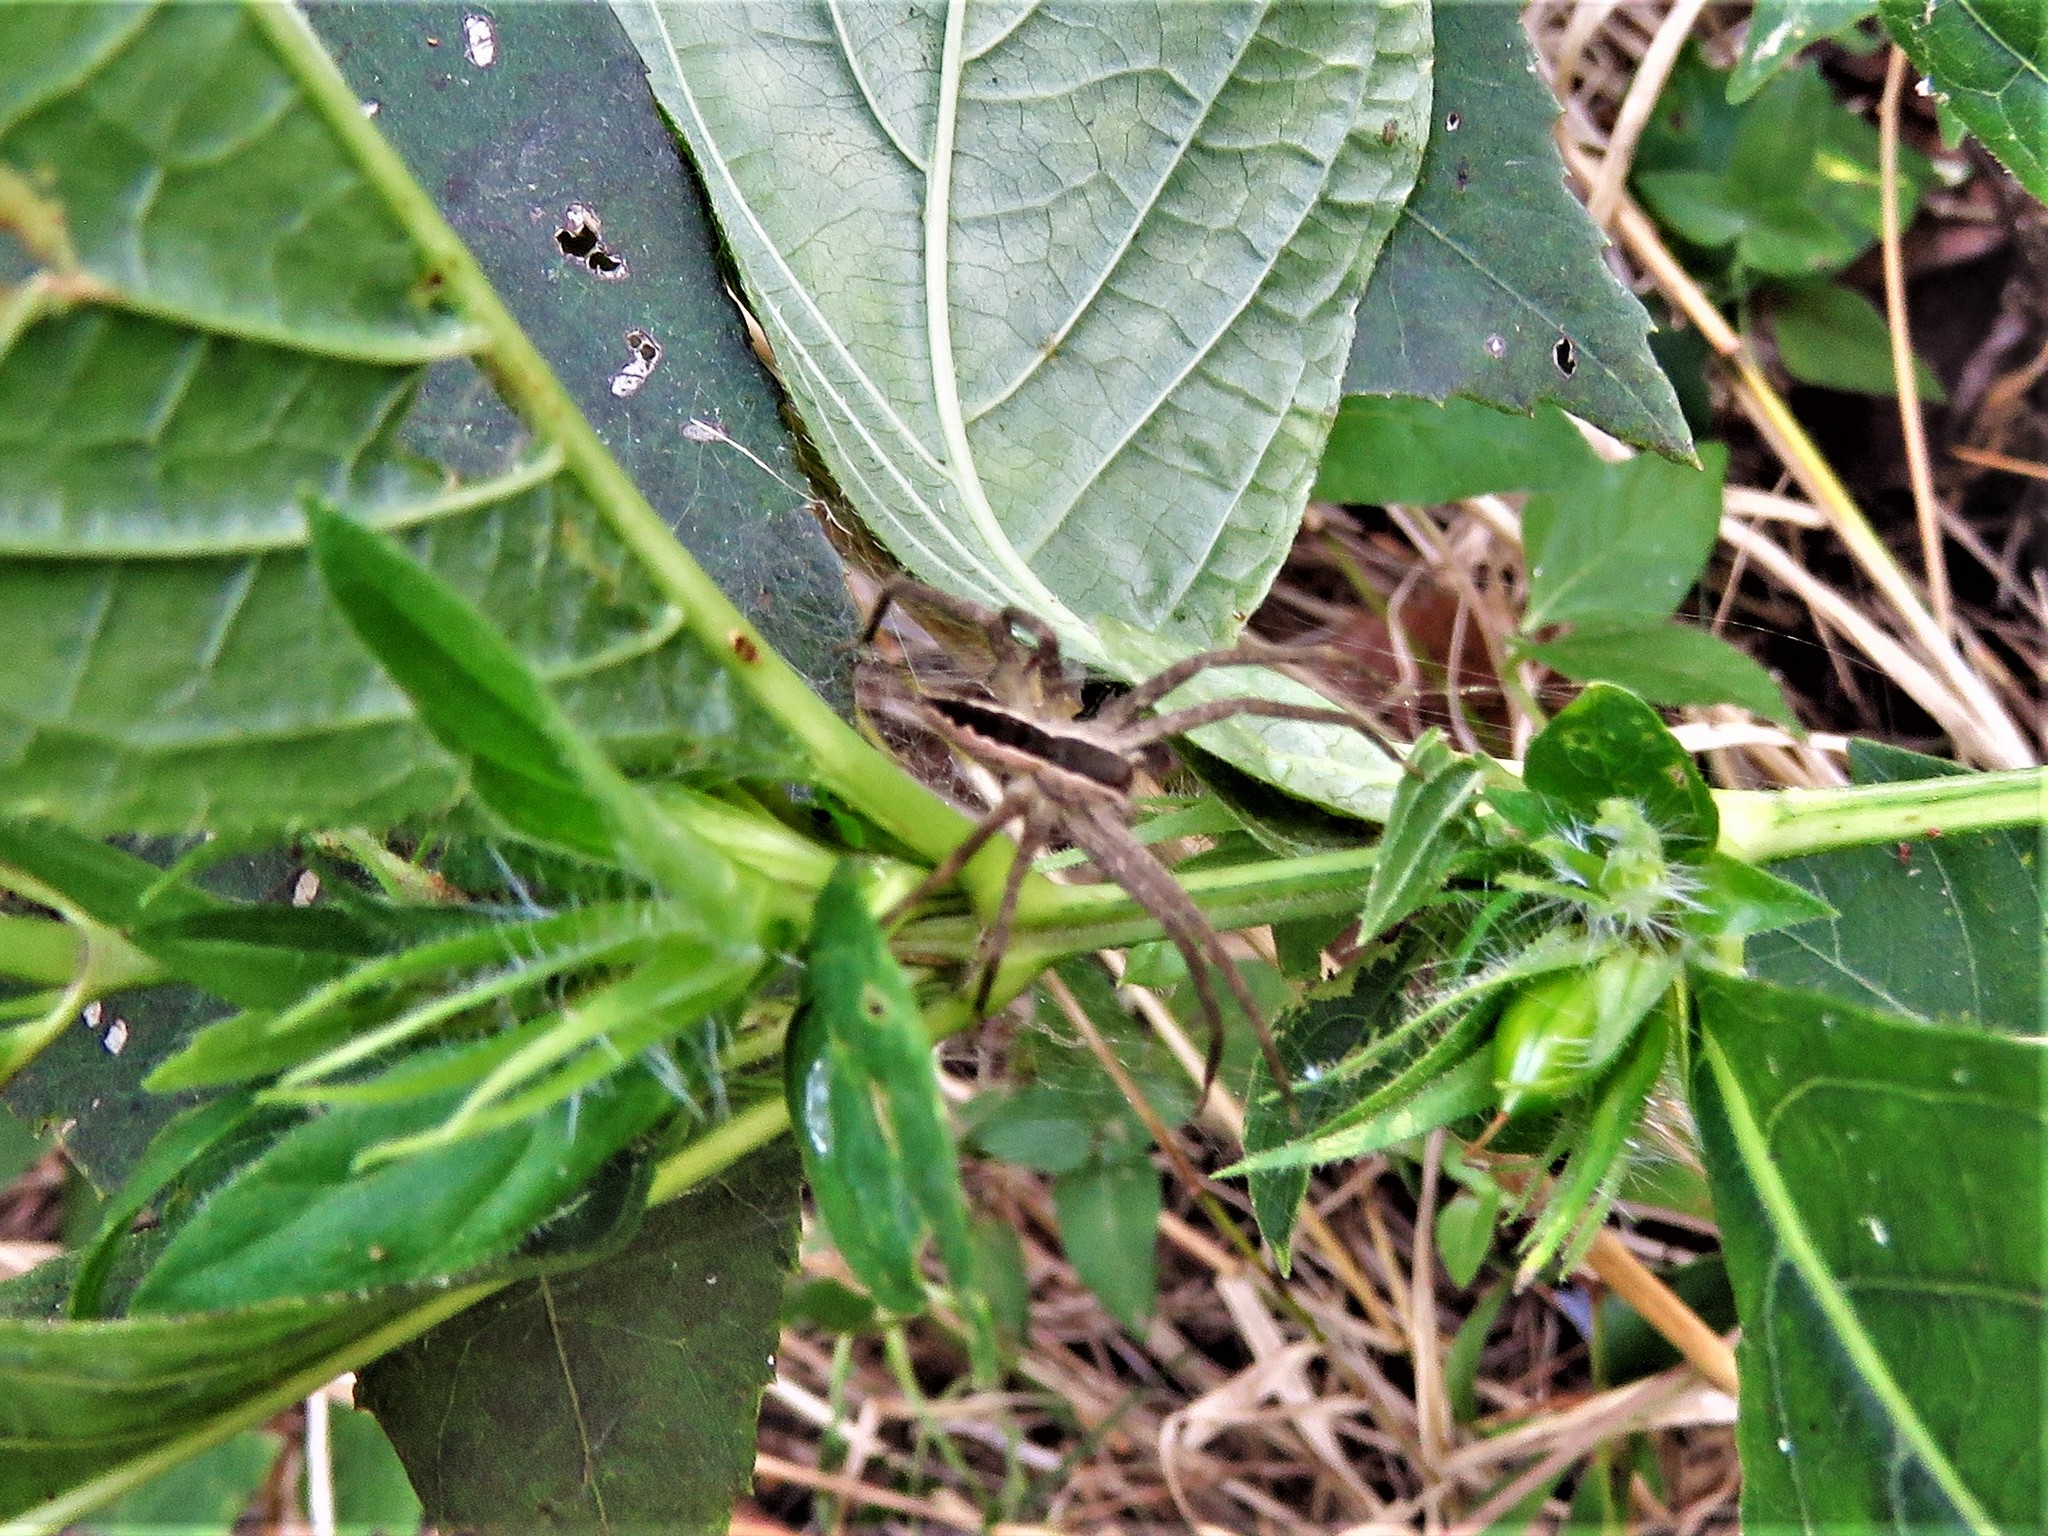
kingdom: Animalia
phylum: Arthropoda
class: Arachnida
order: Araneae
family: Pisauridae
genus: Pisaurina
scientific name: Pisaurina mira
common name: American nursery web spider
